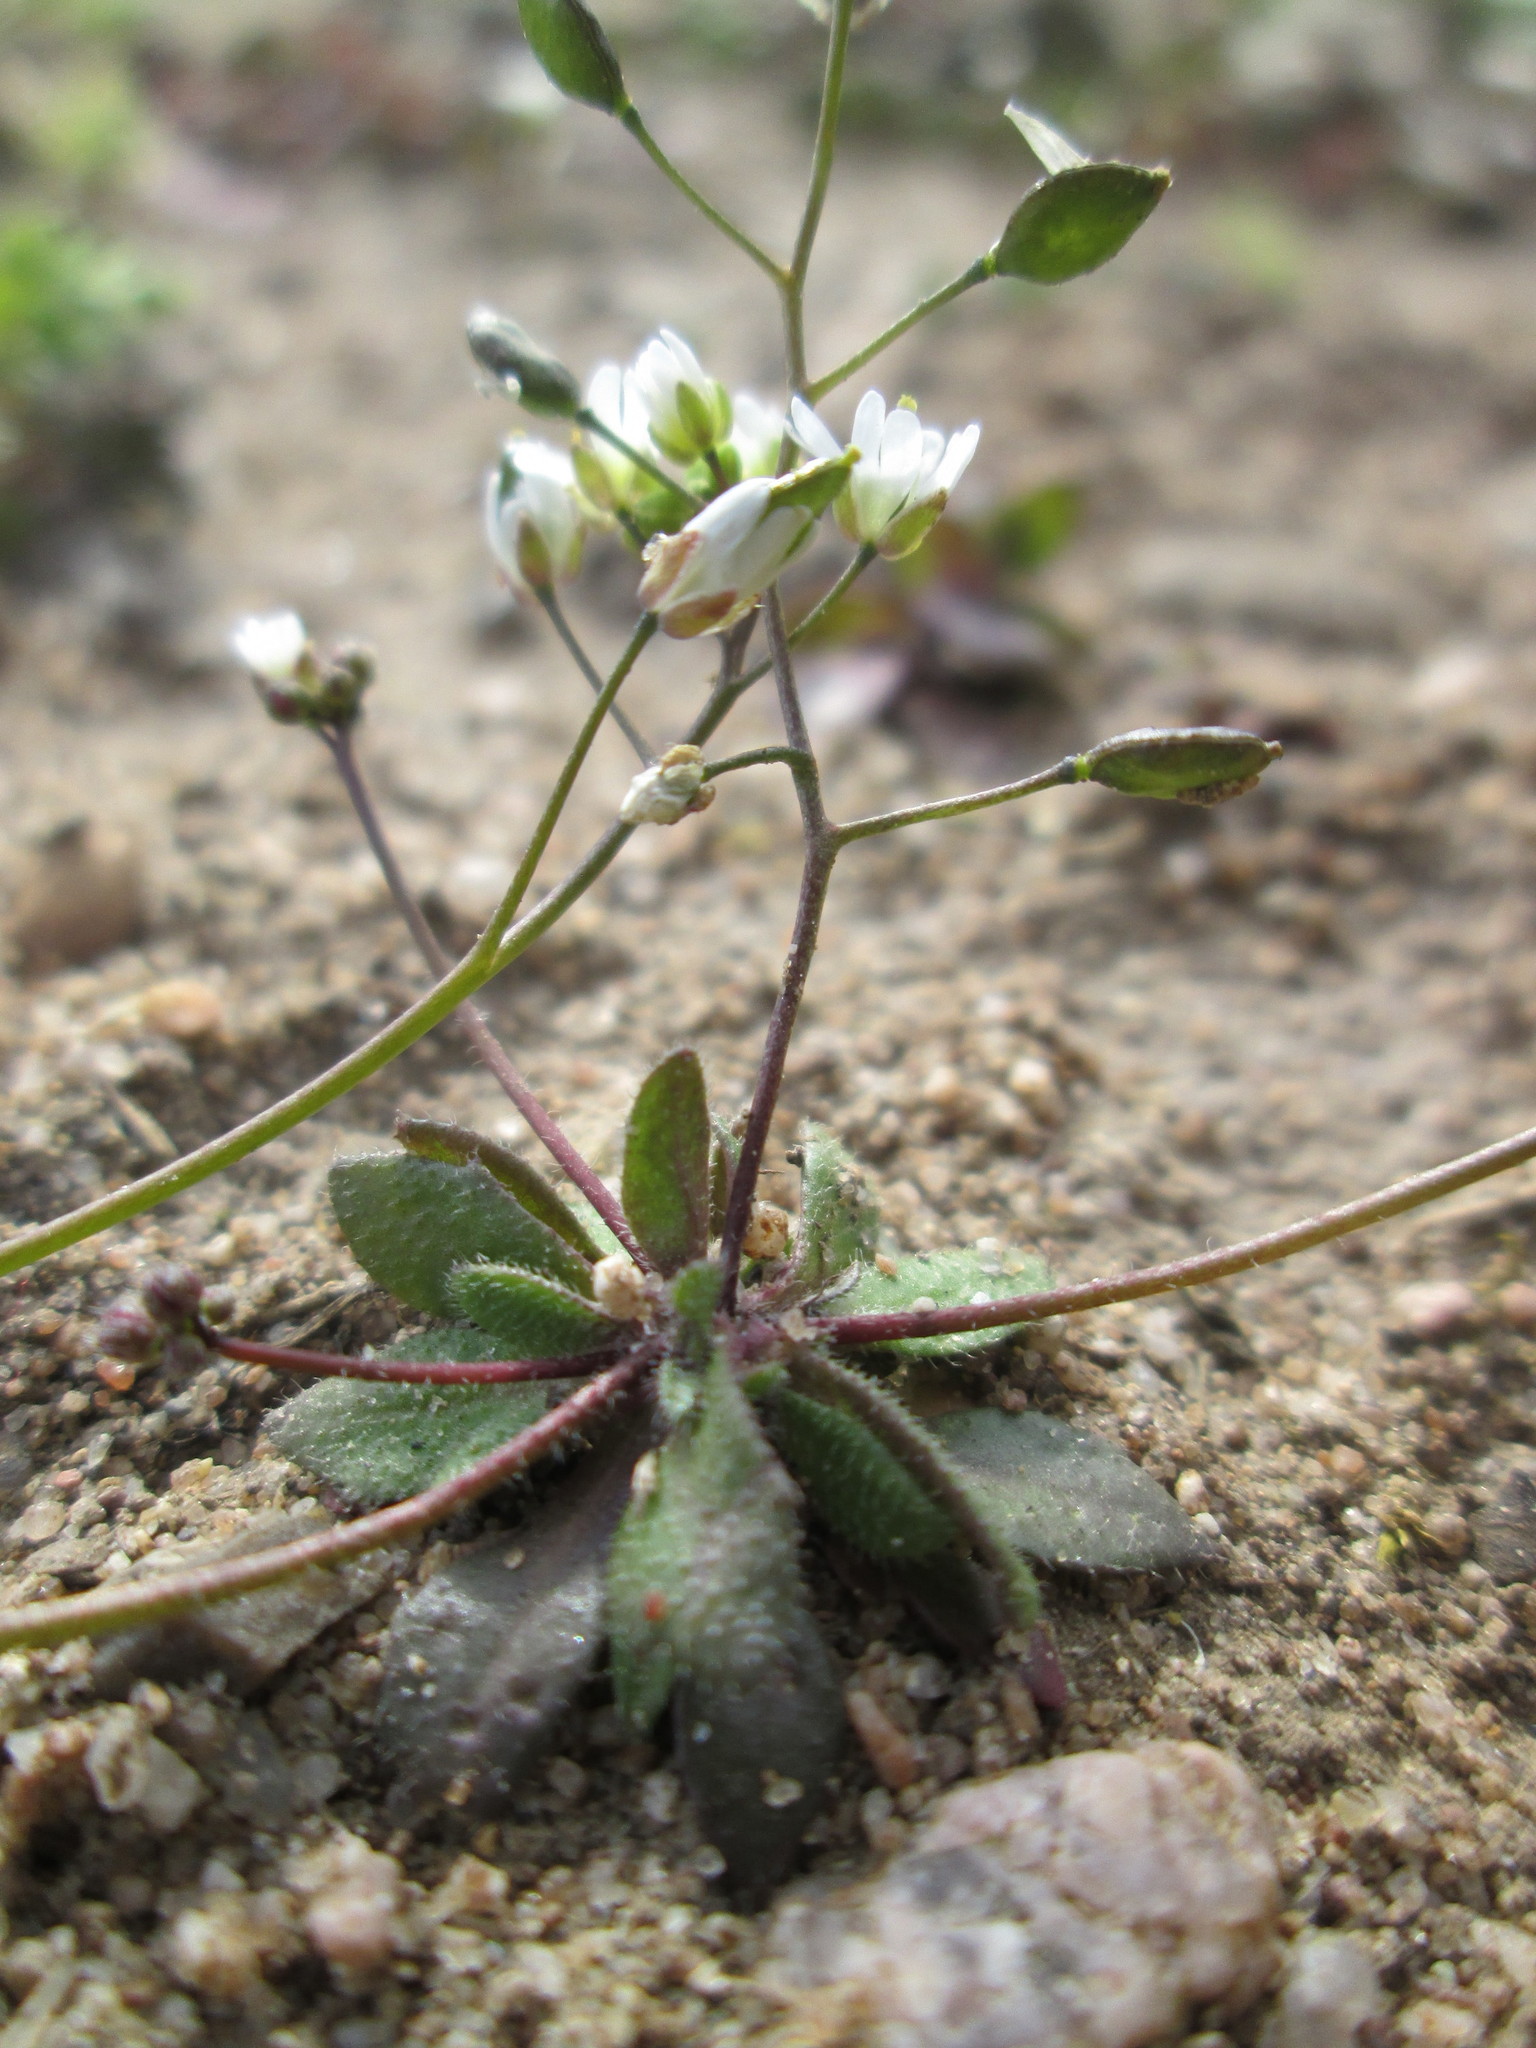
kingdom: Plantae
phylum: Tracheophyta
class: Magnoliopsida
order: Brassicales
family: Brassicaceae
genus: Draba
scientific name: Draba verna
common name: Spring draba
